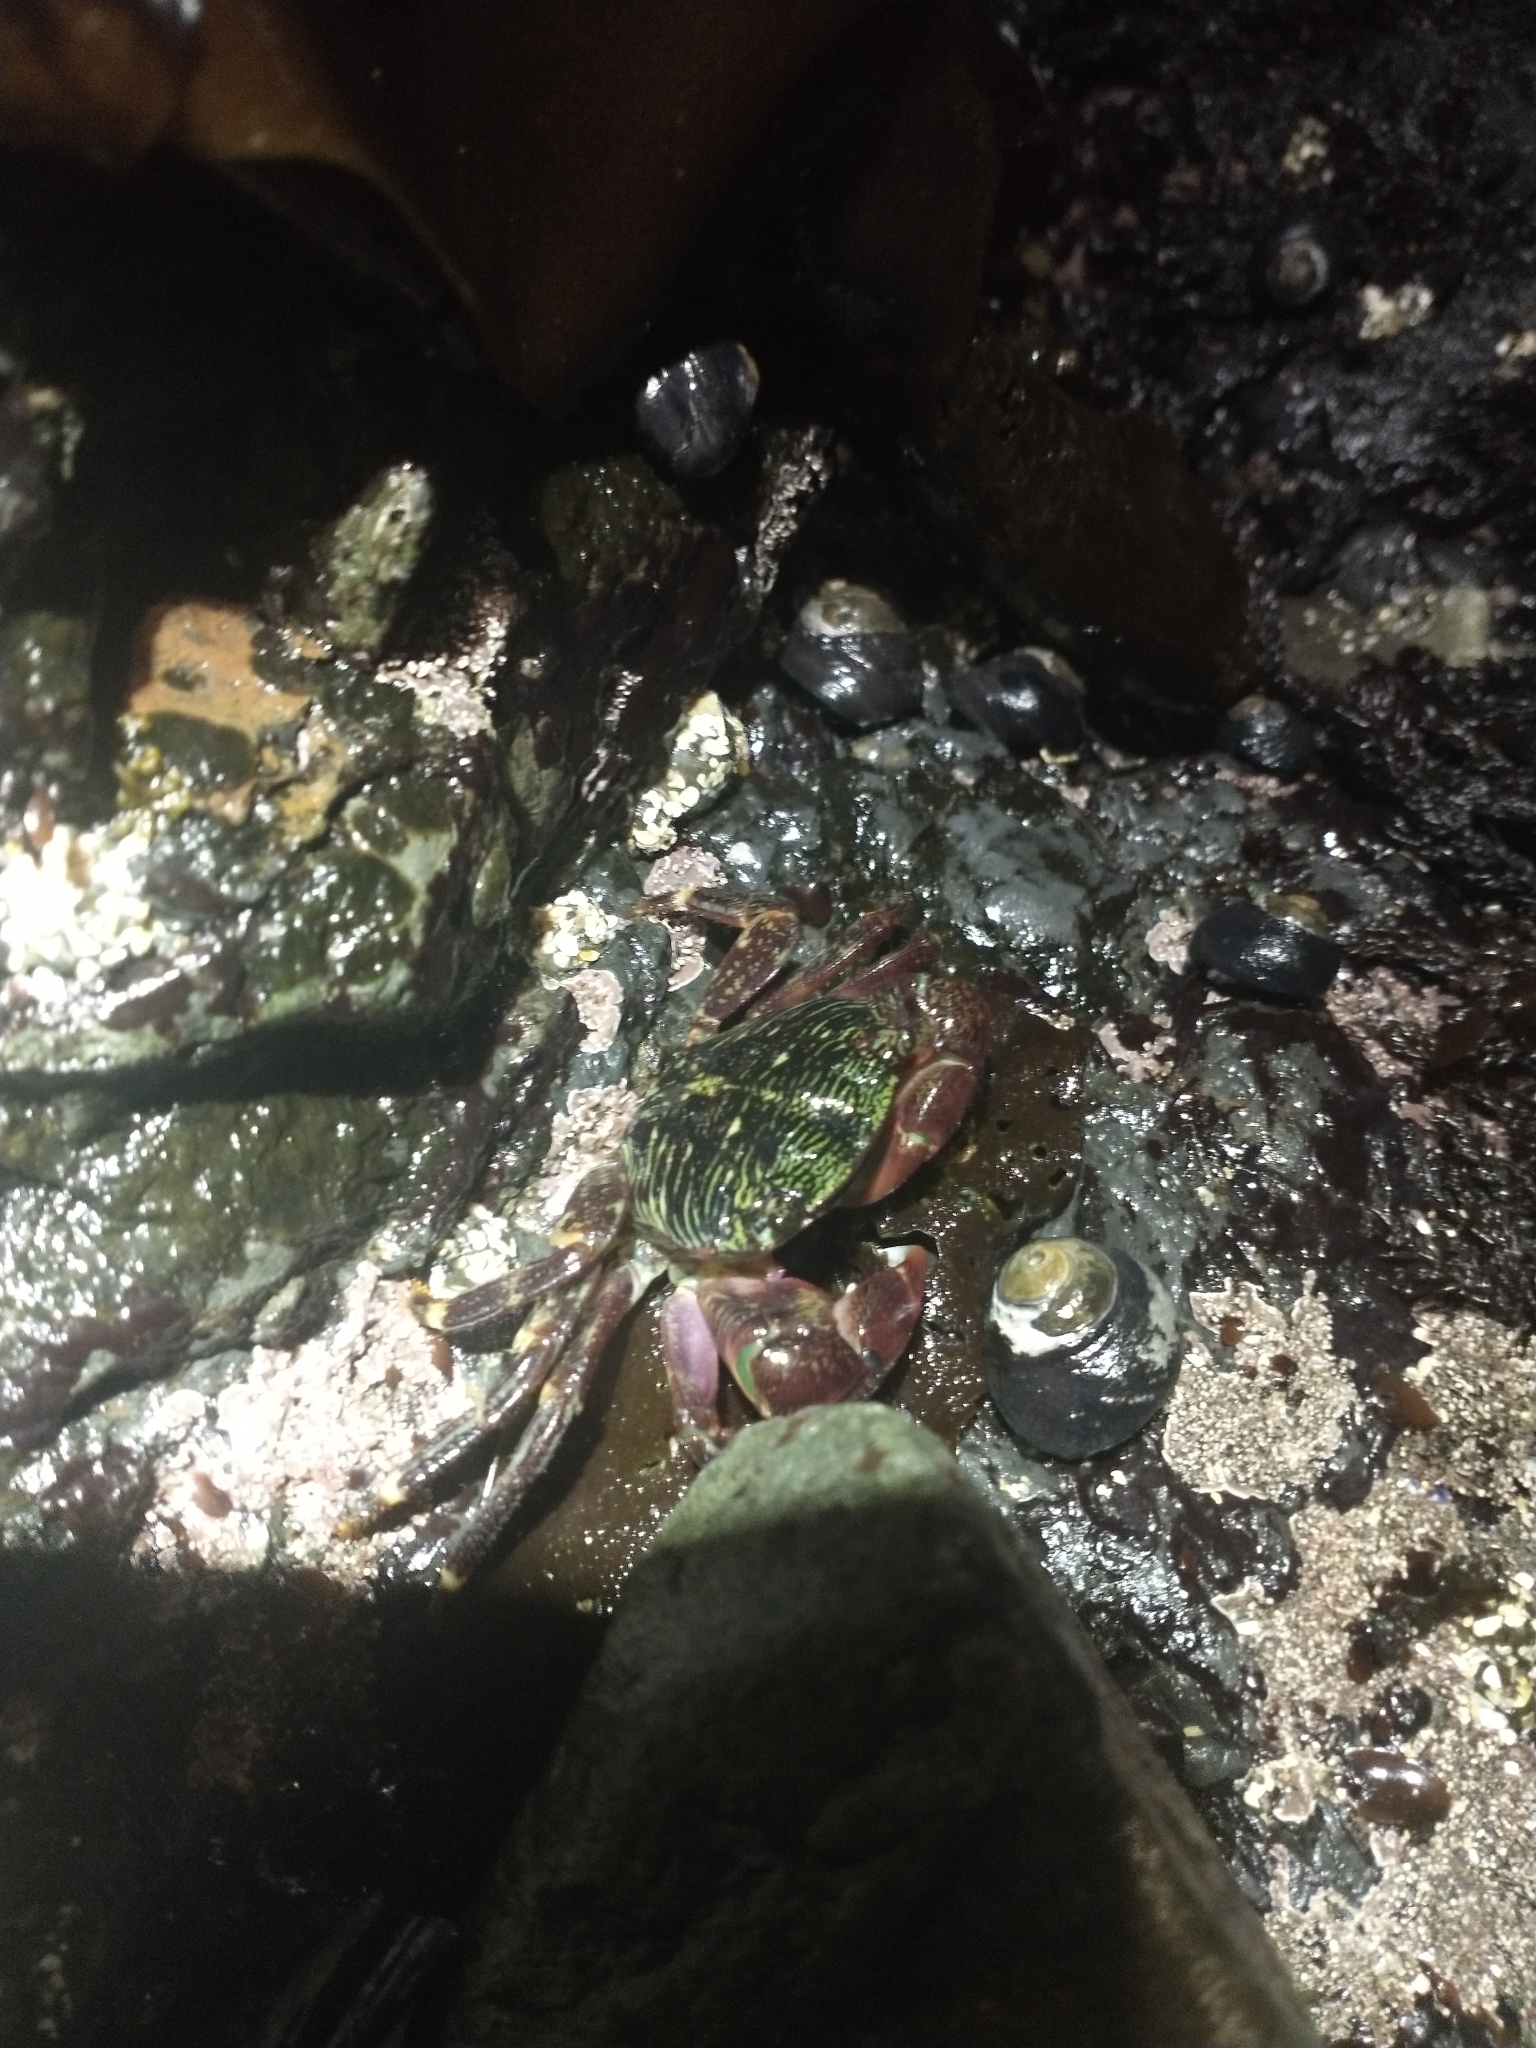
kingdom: Animalia
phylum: Arthropoda
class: Malacostraca
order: Decapoda
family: Grapsidae
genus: Pachygrapsus
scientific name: Pachygrapsus crassipes
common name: Striped shore crab
